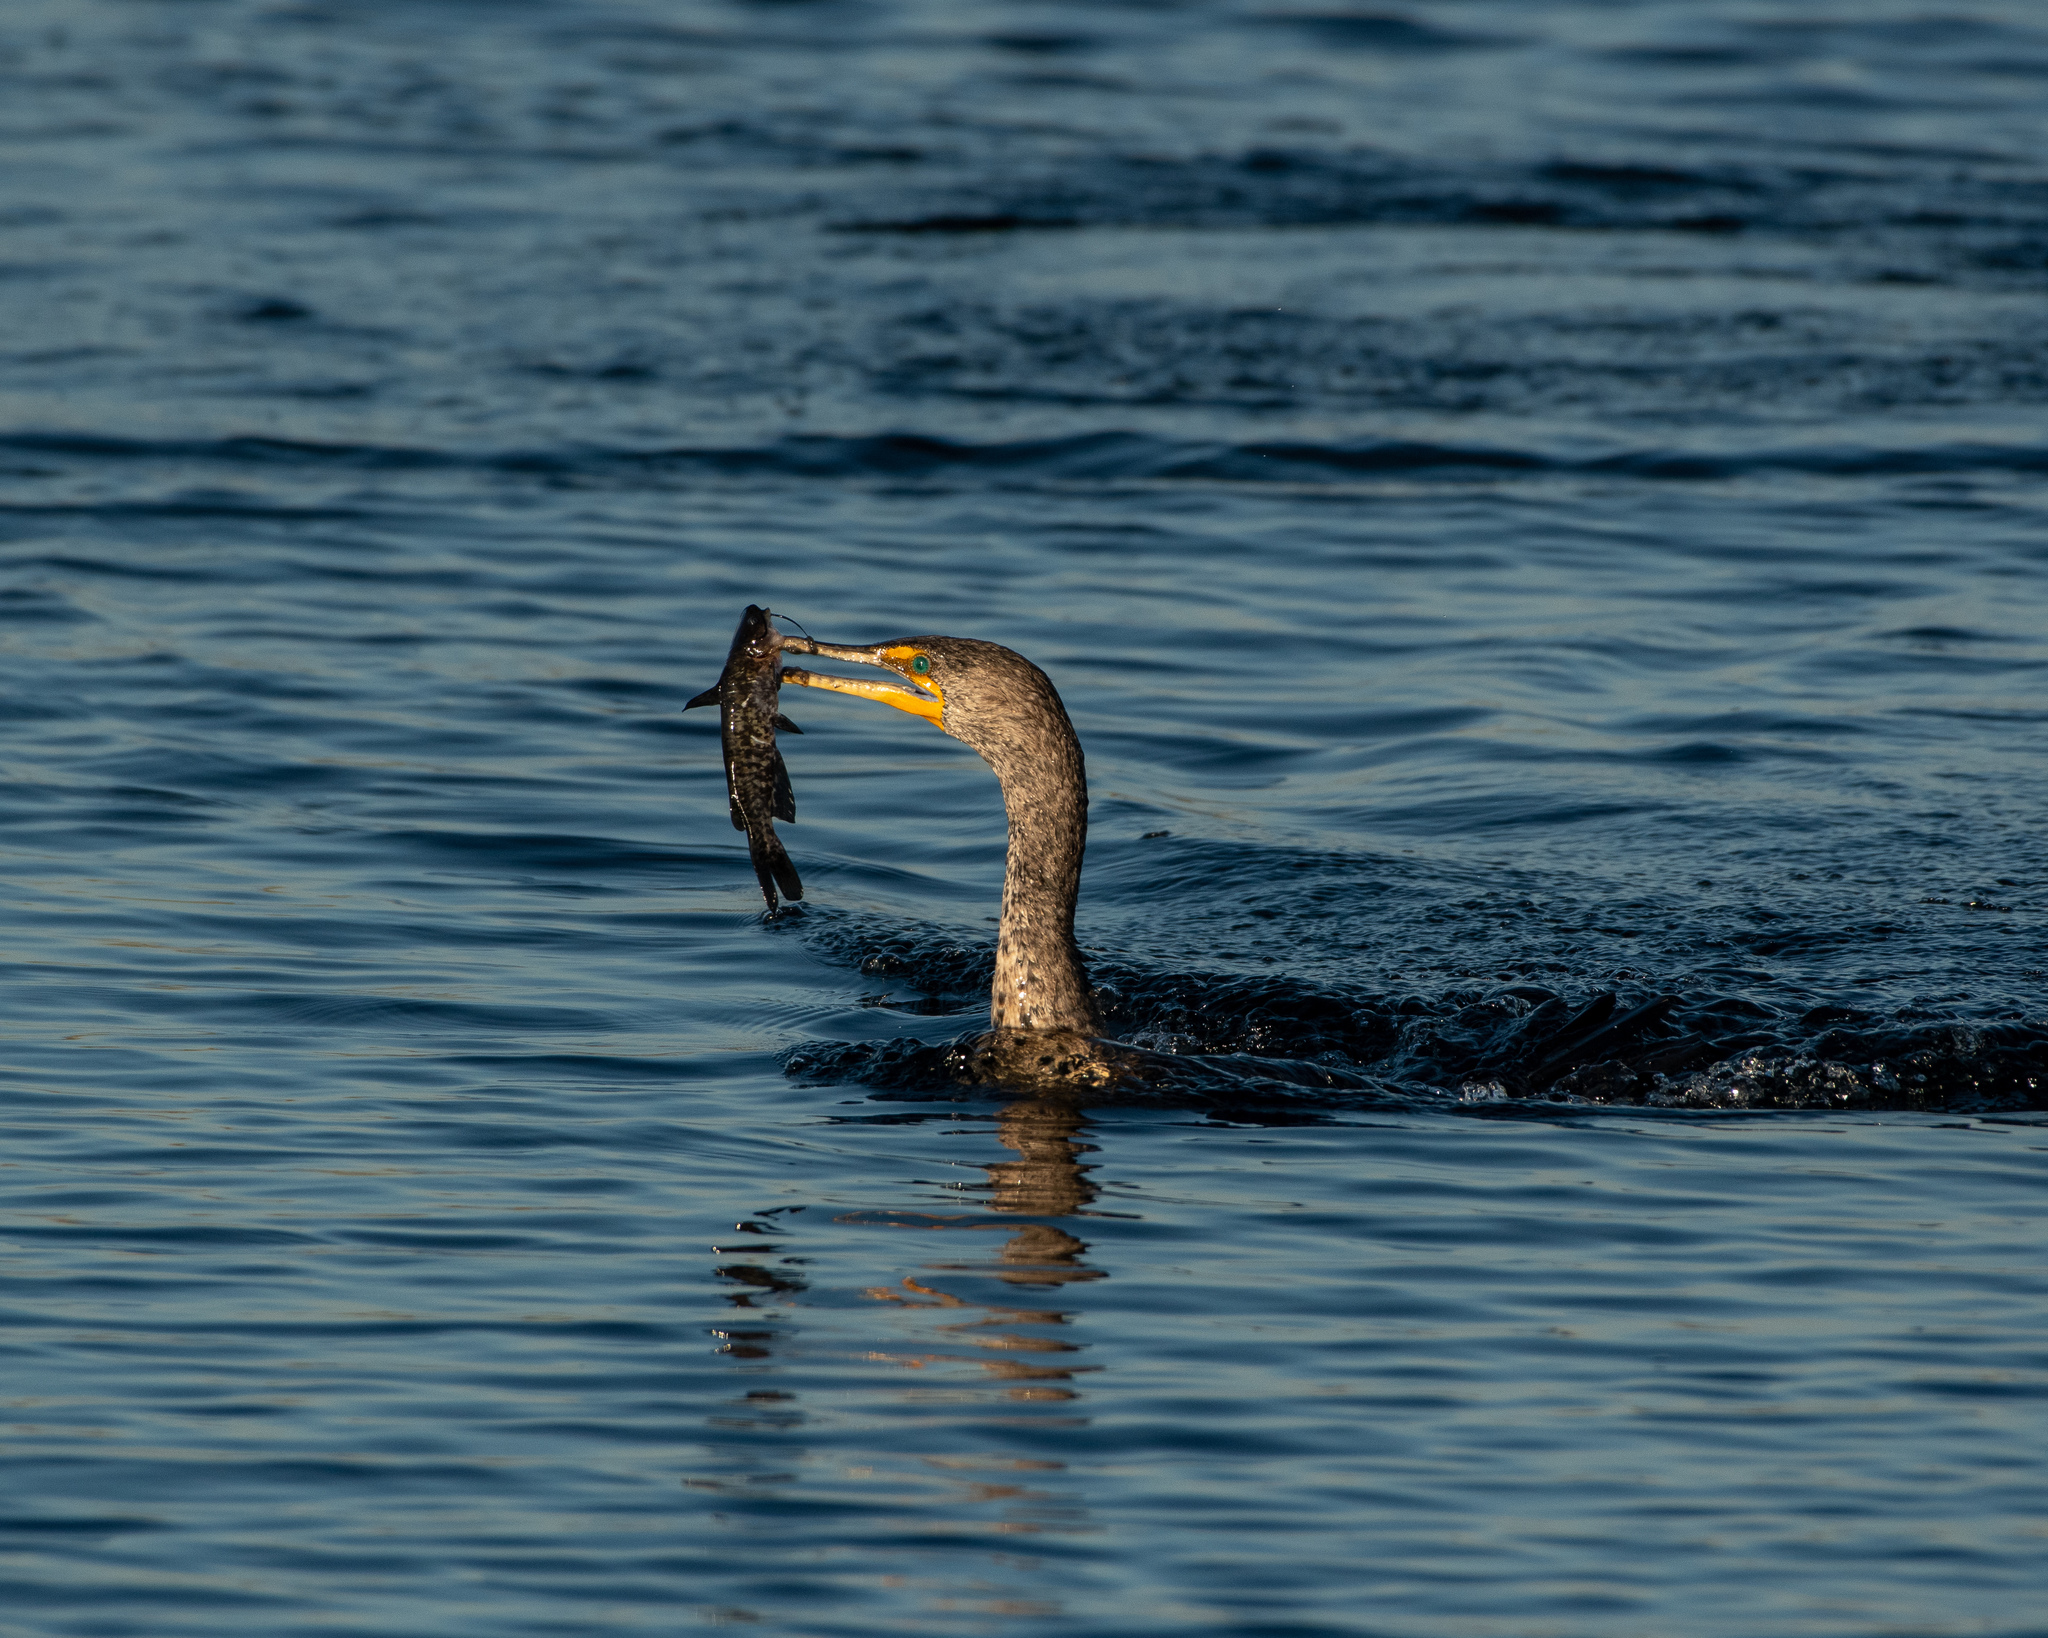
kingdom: Animalia
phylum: Chordata
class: Aves
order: Suliformes
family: Phalacrocoracidae
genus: Phalacrocorax
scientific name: Phalacrocorax auritus
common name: Double-crested cormorant
